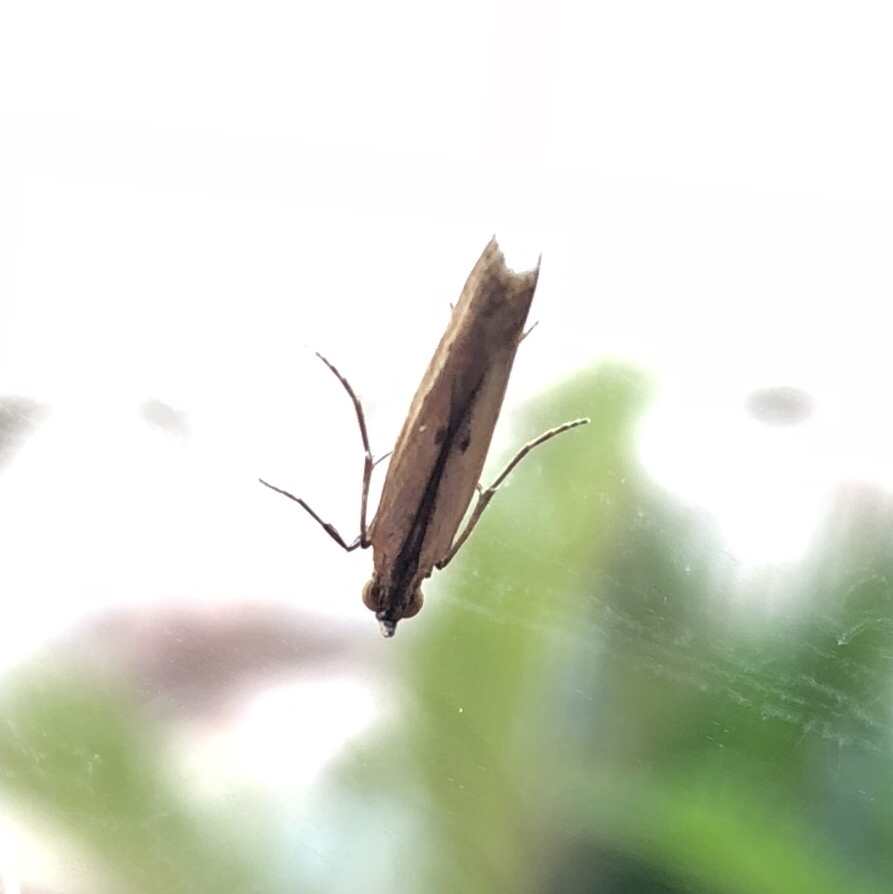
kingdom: Animalia
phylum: Arthropoda
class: Insecta
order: Lepidoptera
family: Pyralidae
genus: Elasmopalpus
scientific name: Elasmopalpus lignosella
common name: Lesser cornstalk borer
